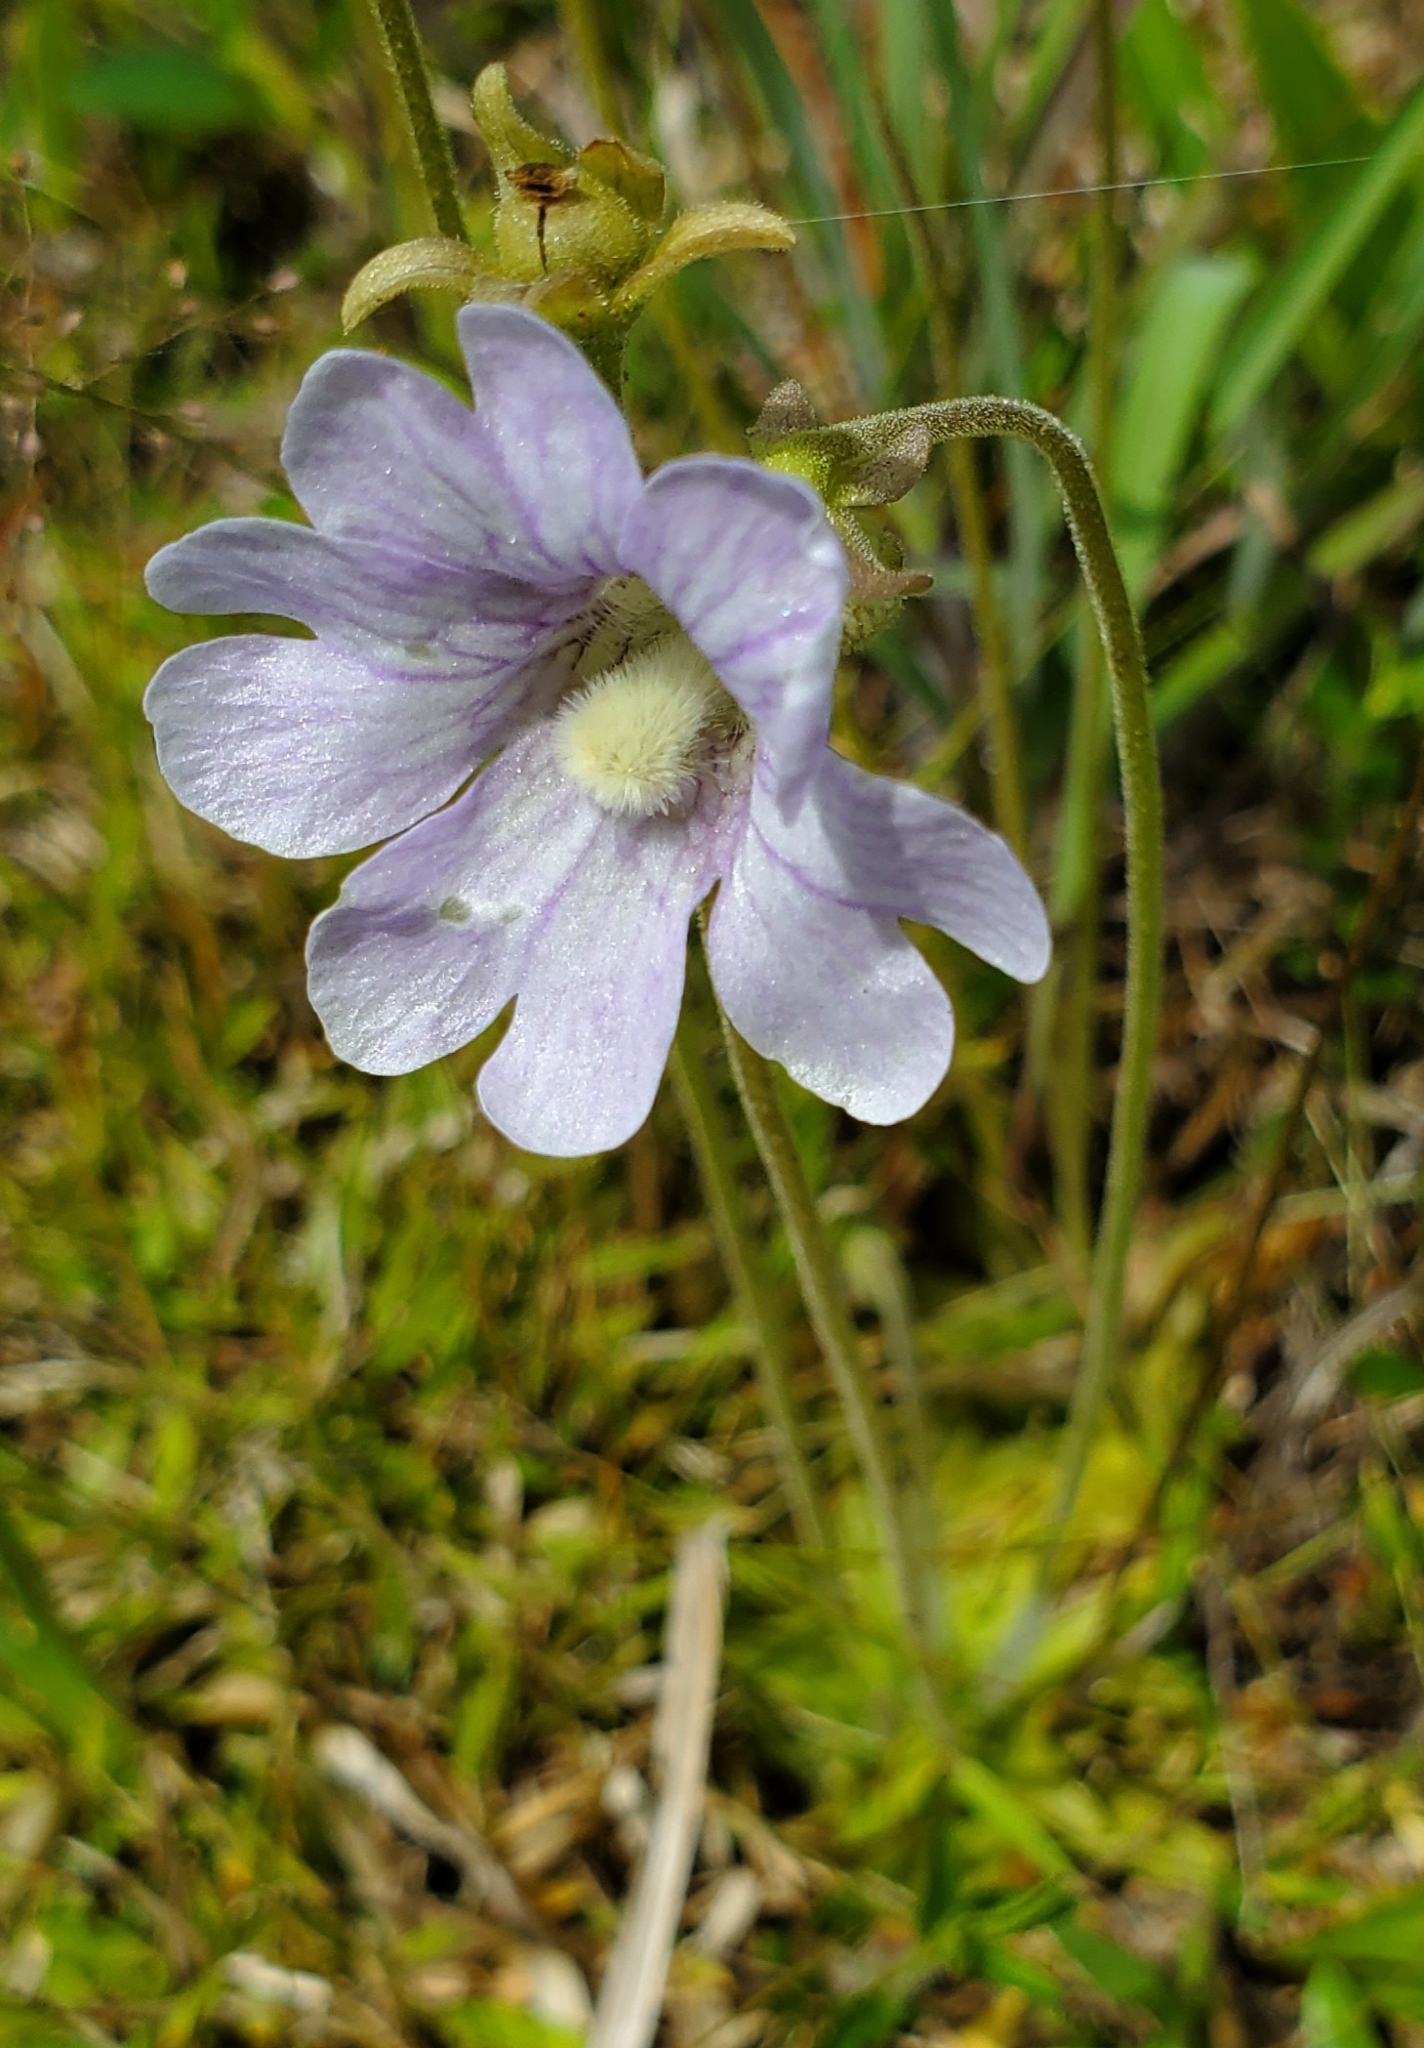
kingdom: Plantae
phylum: Tracheophyta
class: Magnoliopsida
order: Lamiales
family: Lentibulariaceae
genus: Pinguicula
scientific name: Pinguicula caerulea
